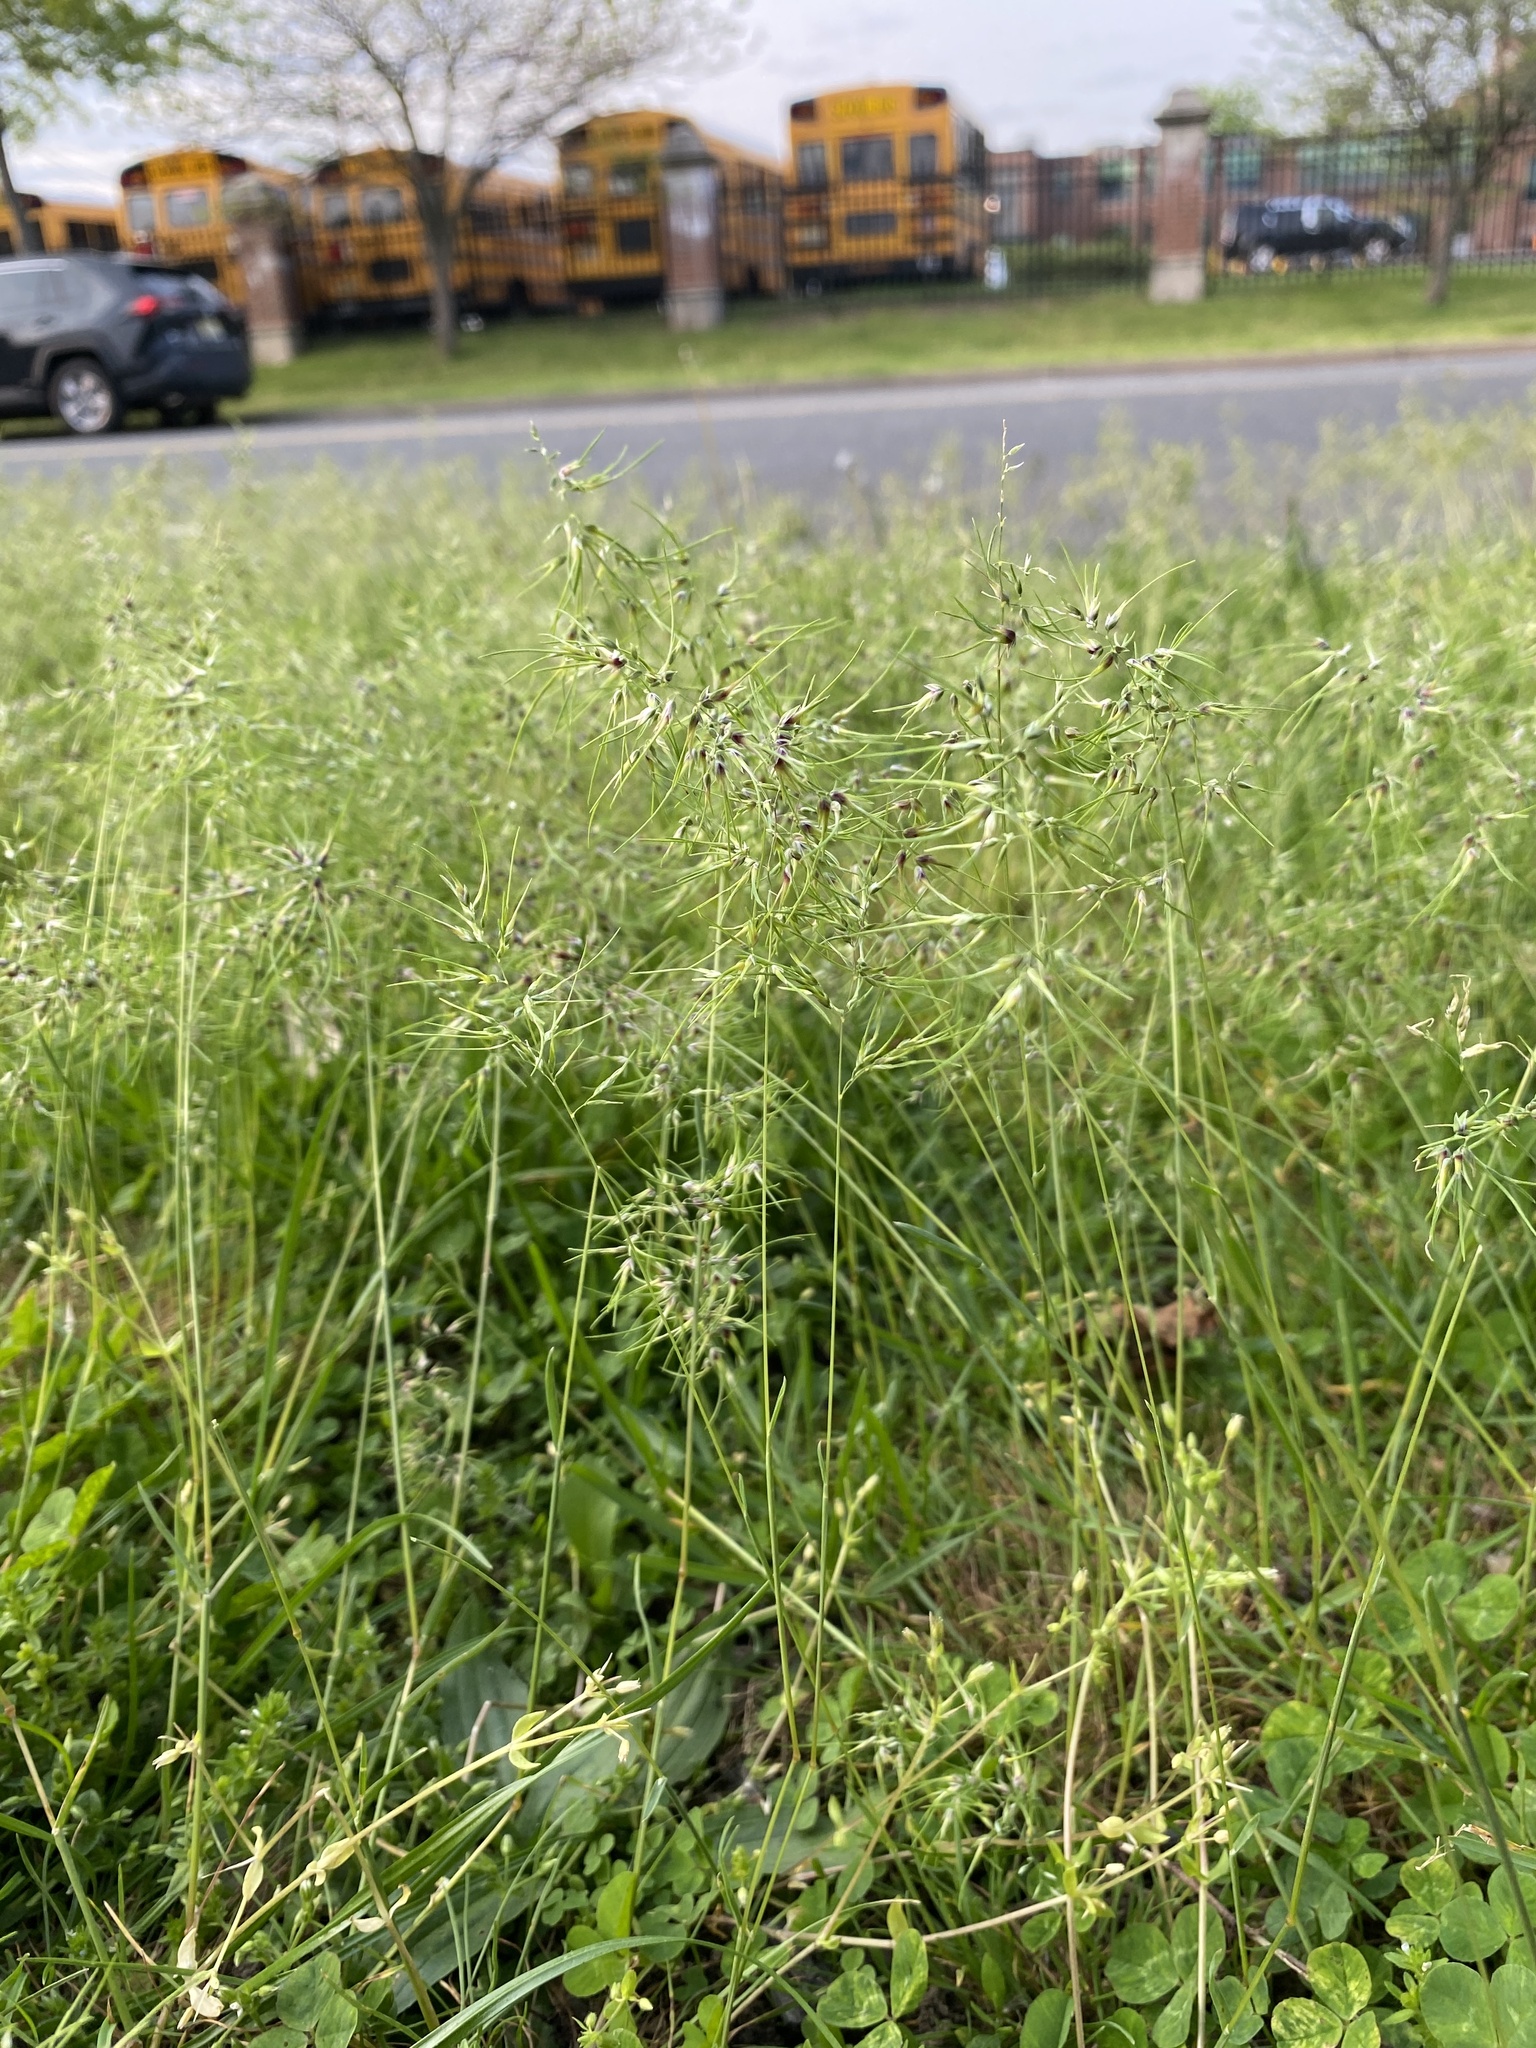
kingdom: Plantae
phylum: Tracheophyta
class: Liliopsida
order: Poales
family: Poaceae
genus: Poa
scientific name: Poa bulbosa
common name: Bulbous bluegrass
